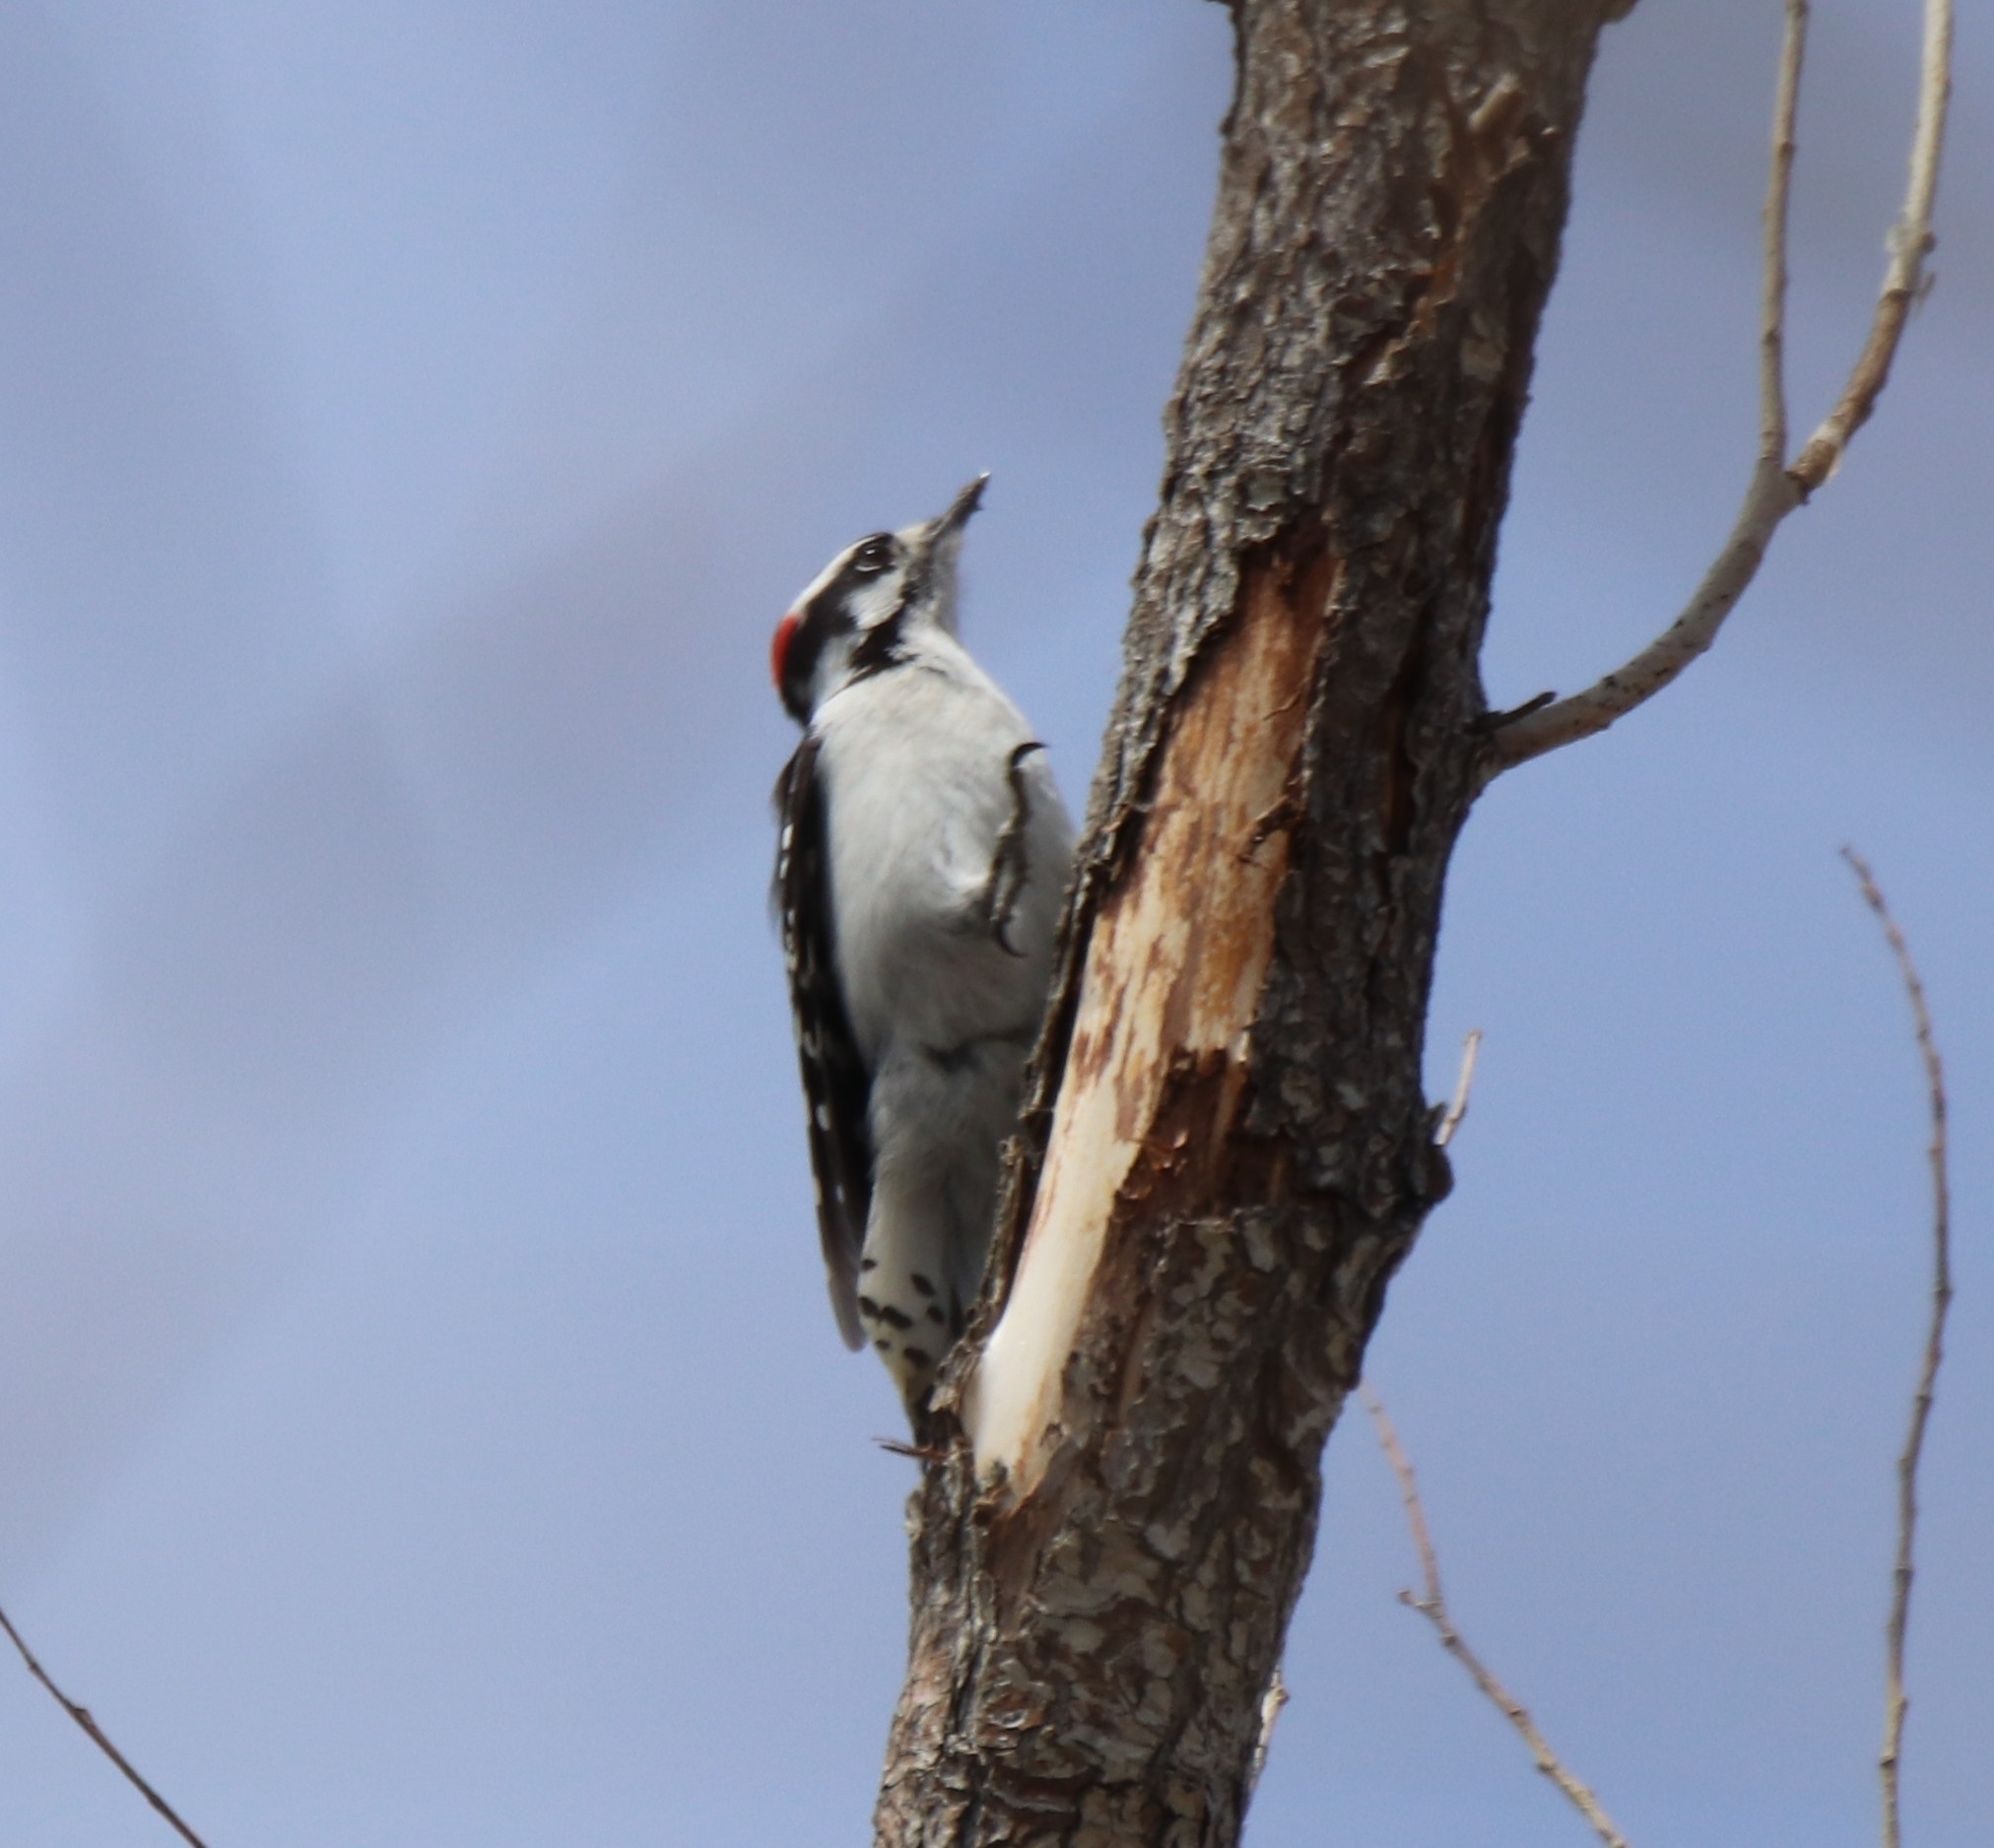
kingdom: Animalia
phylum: Chordata
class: Aves
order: Piciformes
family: Picidae
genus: Dryobates
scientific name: Dryobates pubescens
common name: Downy woodpecker
